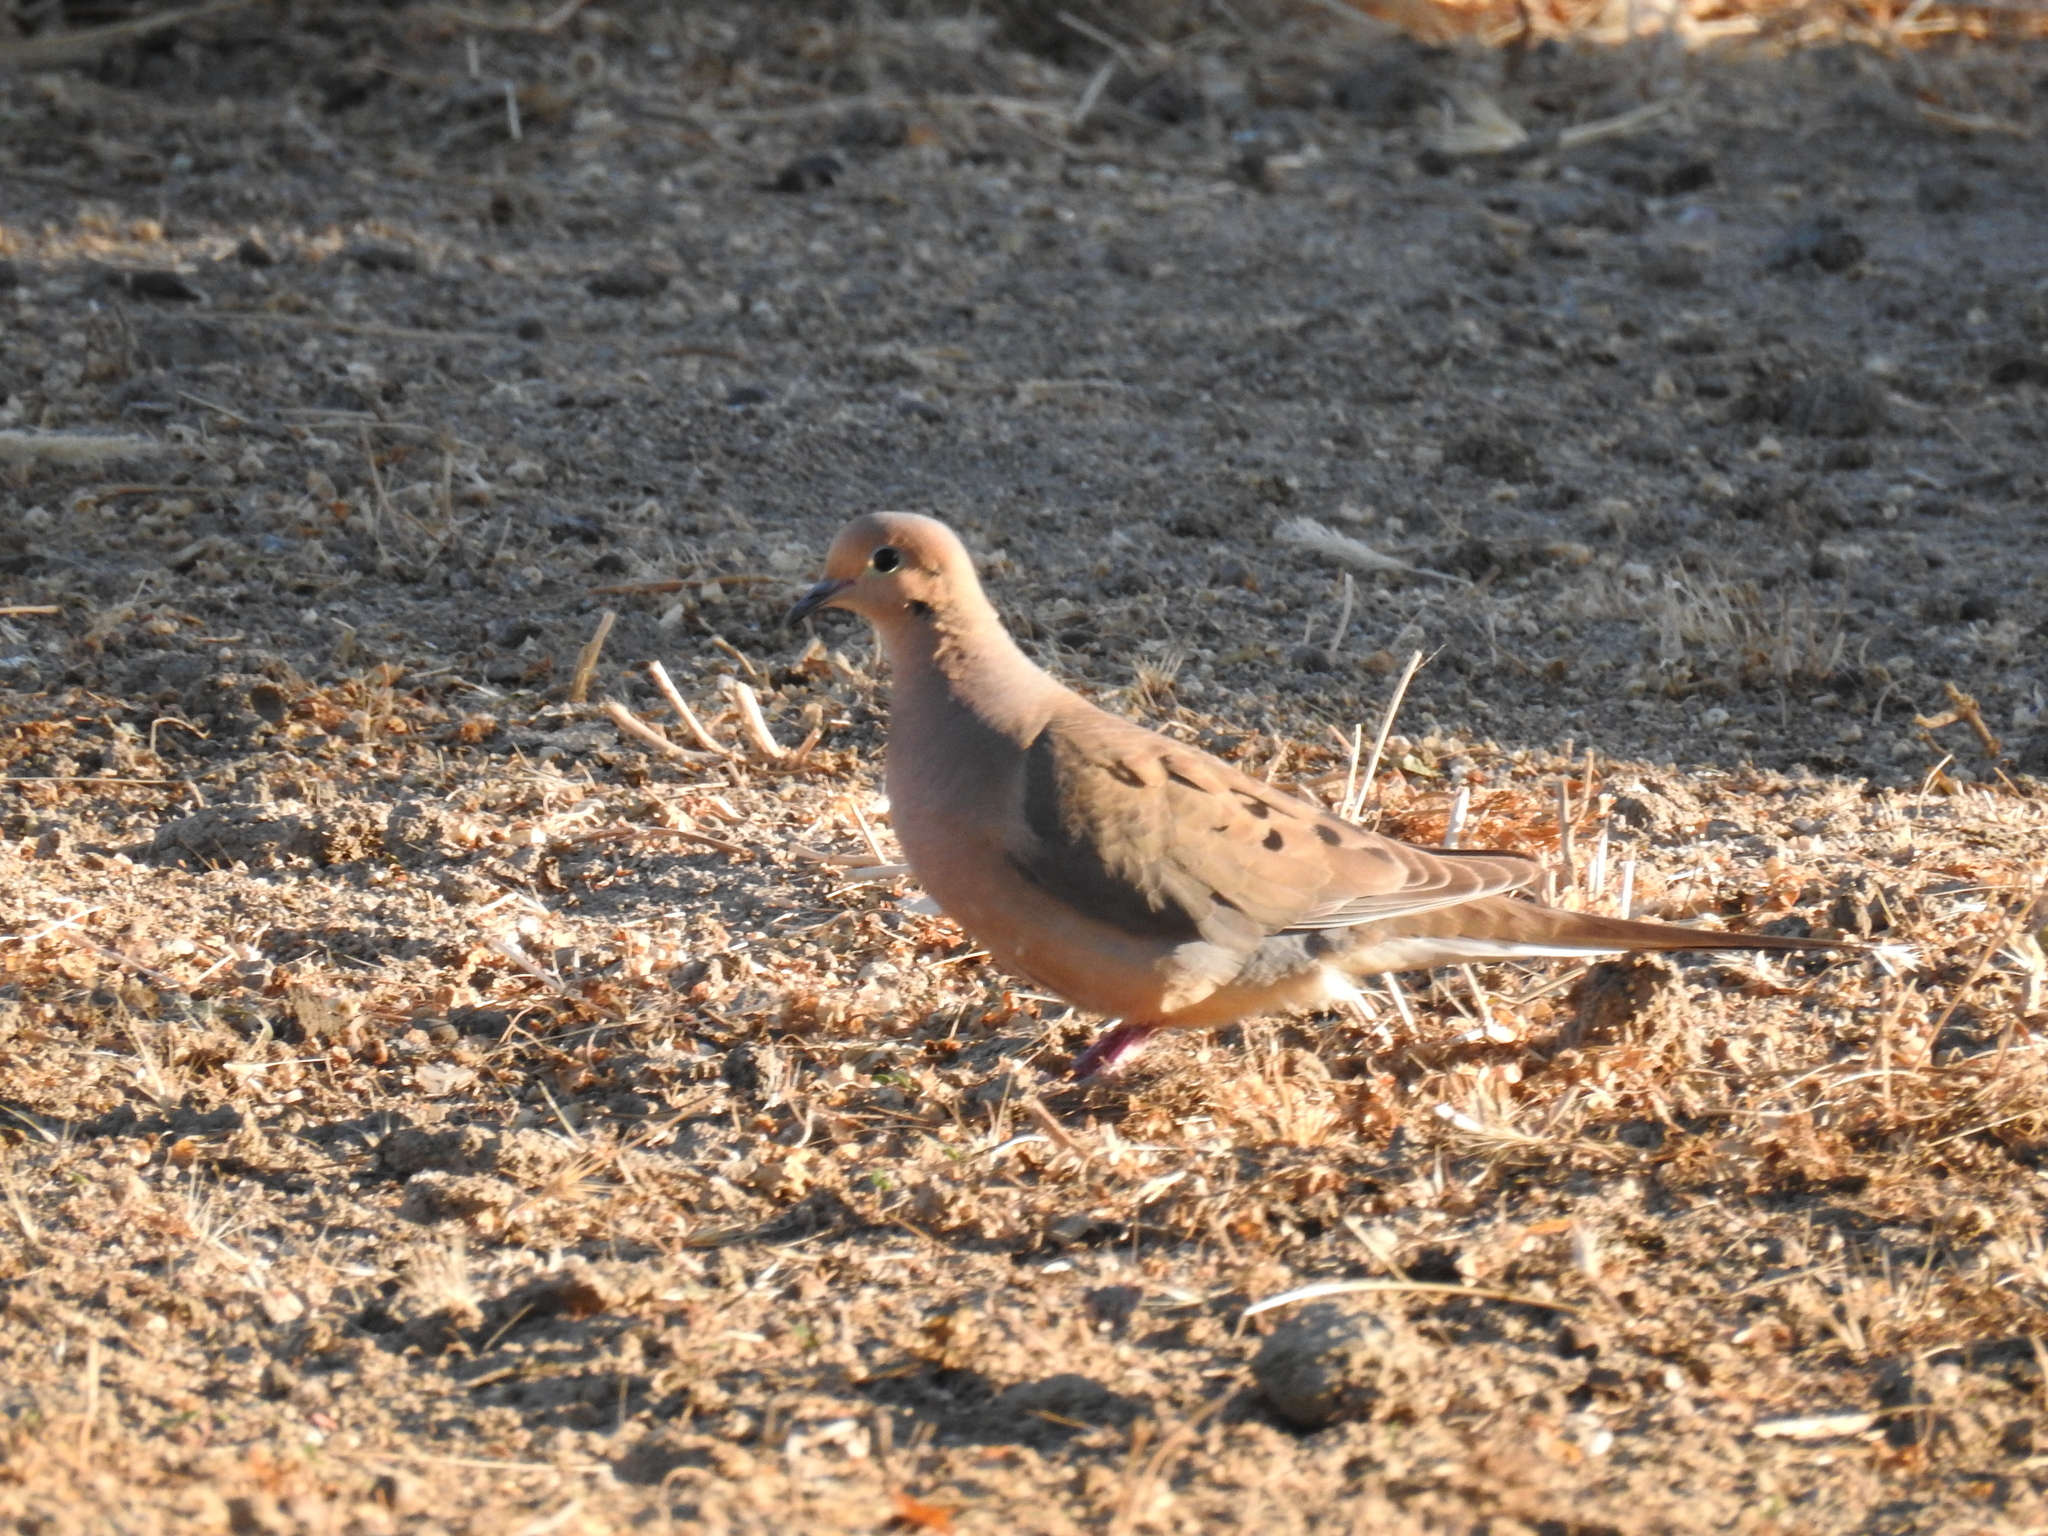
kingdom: Animalia
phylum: Chordata
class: Aves
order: Columbiformes
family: Columbidae
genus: Zenaida
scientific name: Zenaida macroura
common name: Mourning dove
